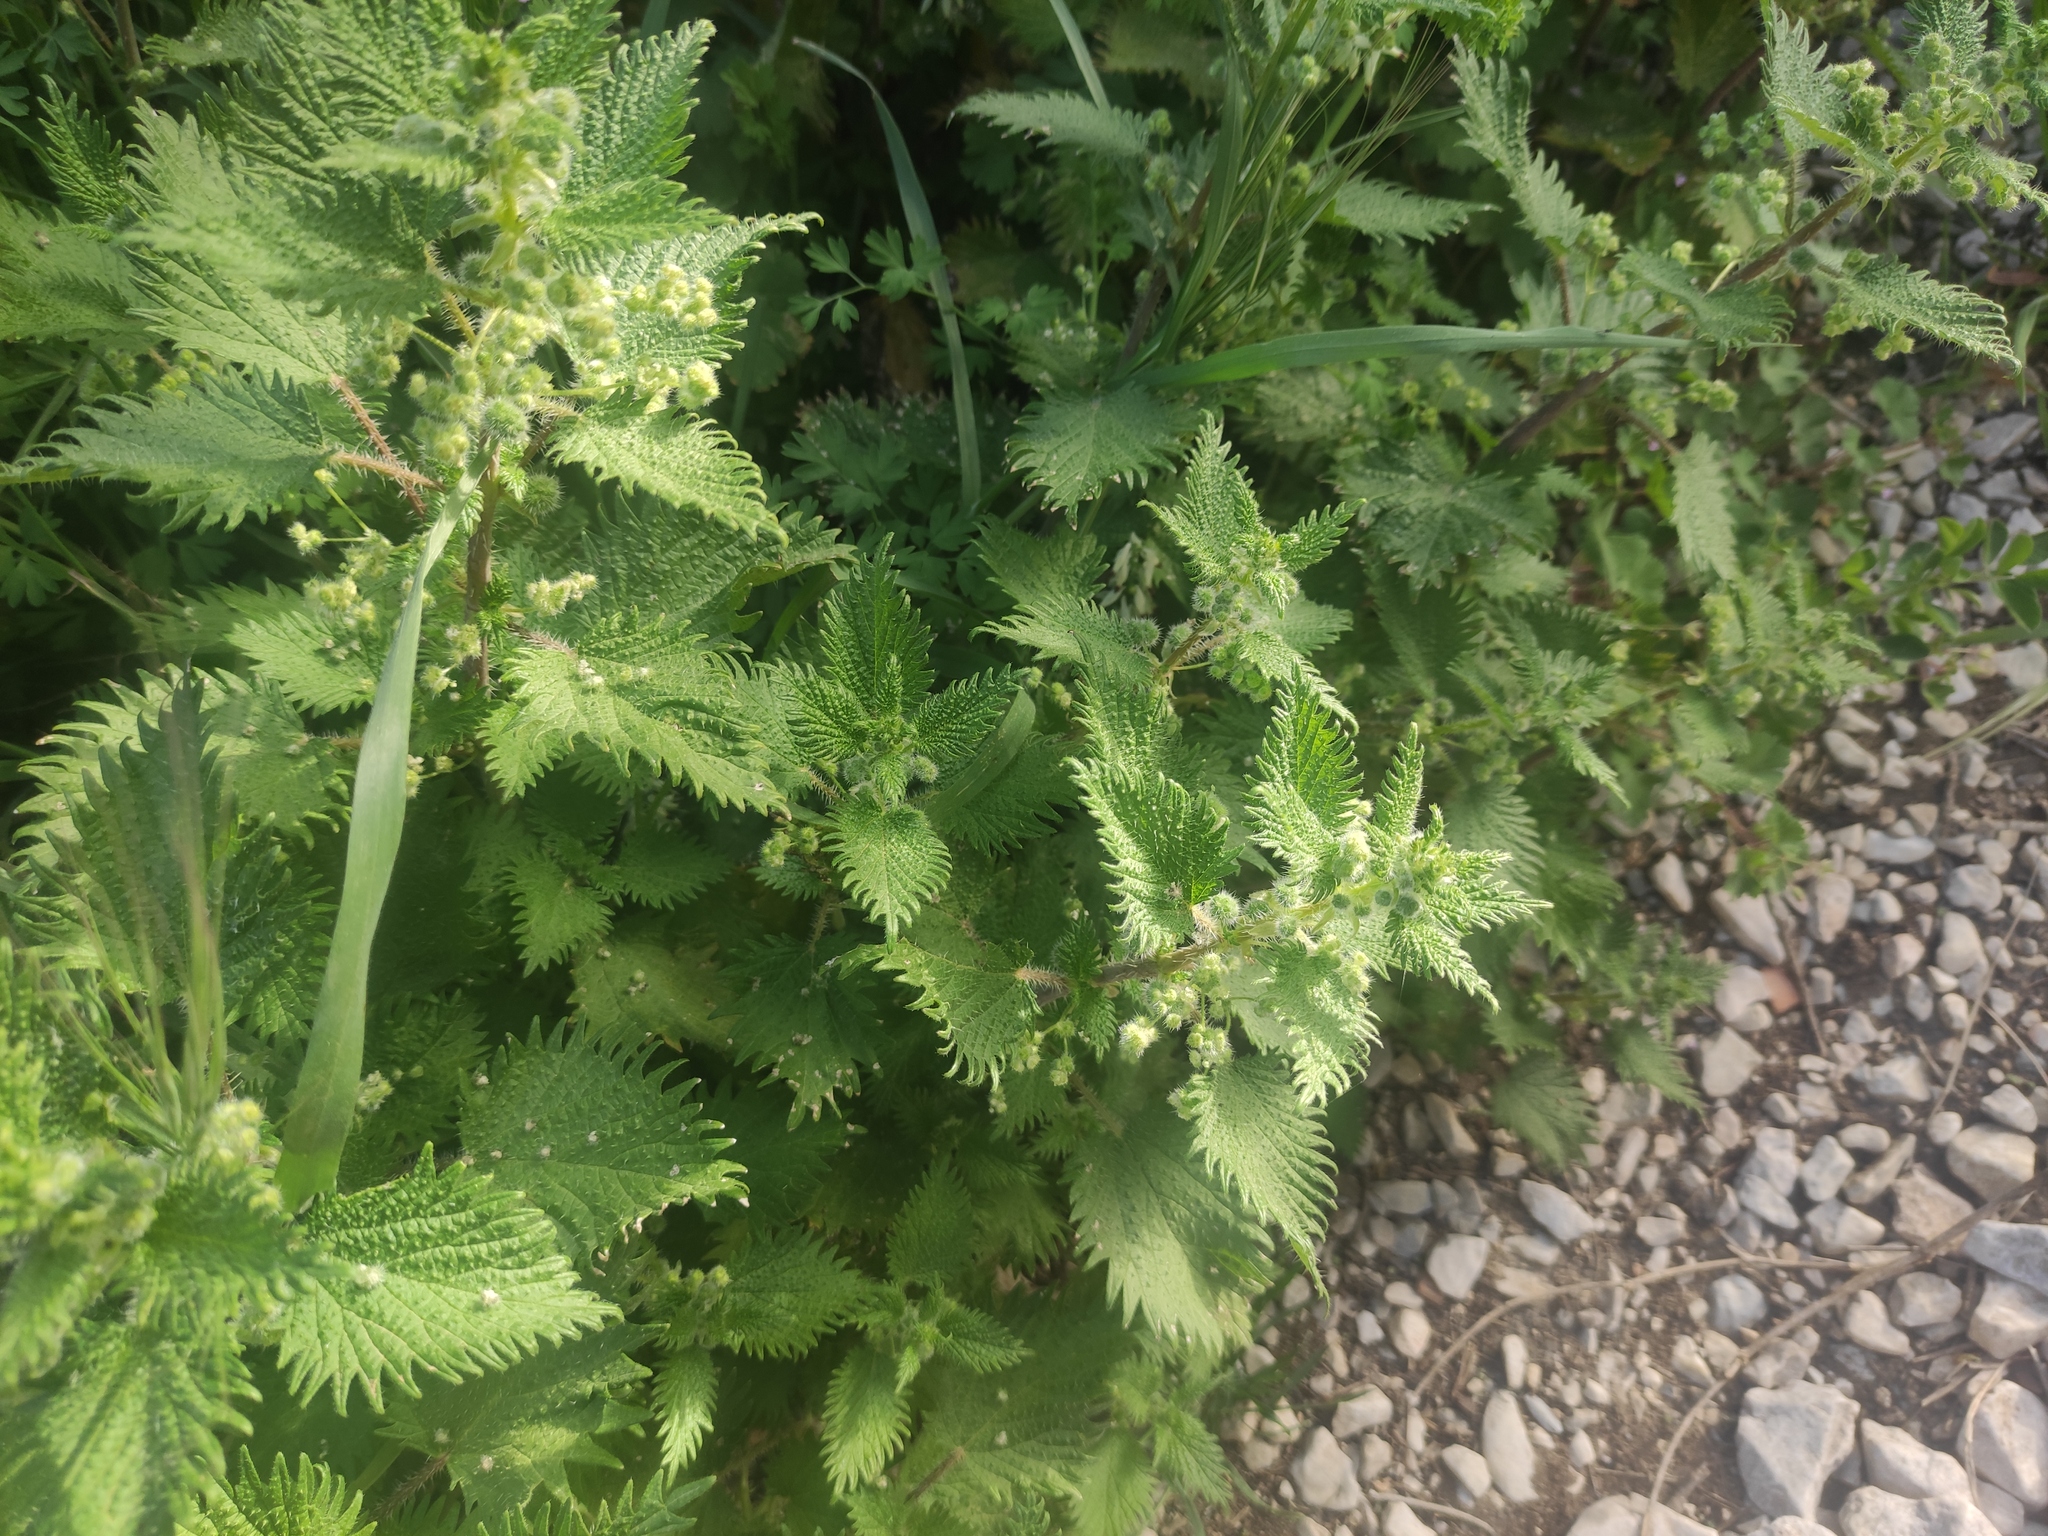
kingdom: Plantae
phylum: Tracheophyta
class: Magnoliopsida
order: Rosales
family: Urticaceae
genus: Urtica
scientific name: Urtica pilulifera
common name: Roman nettle
